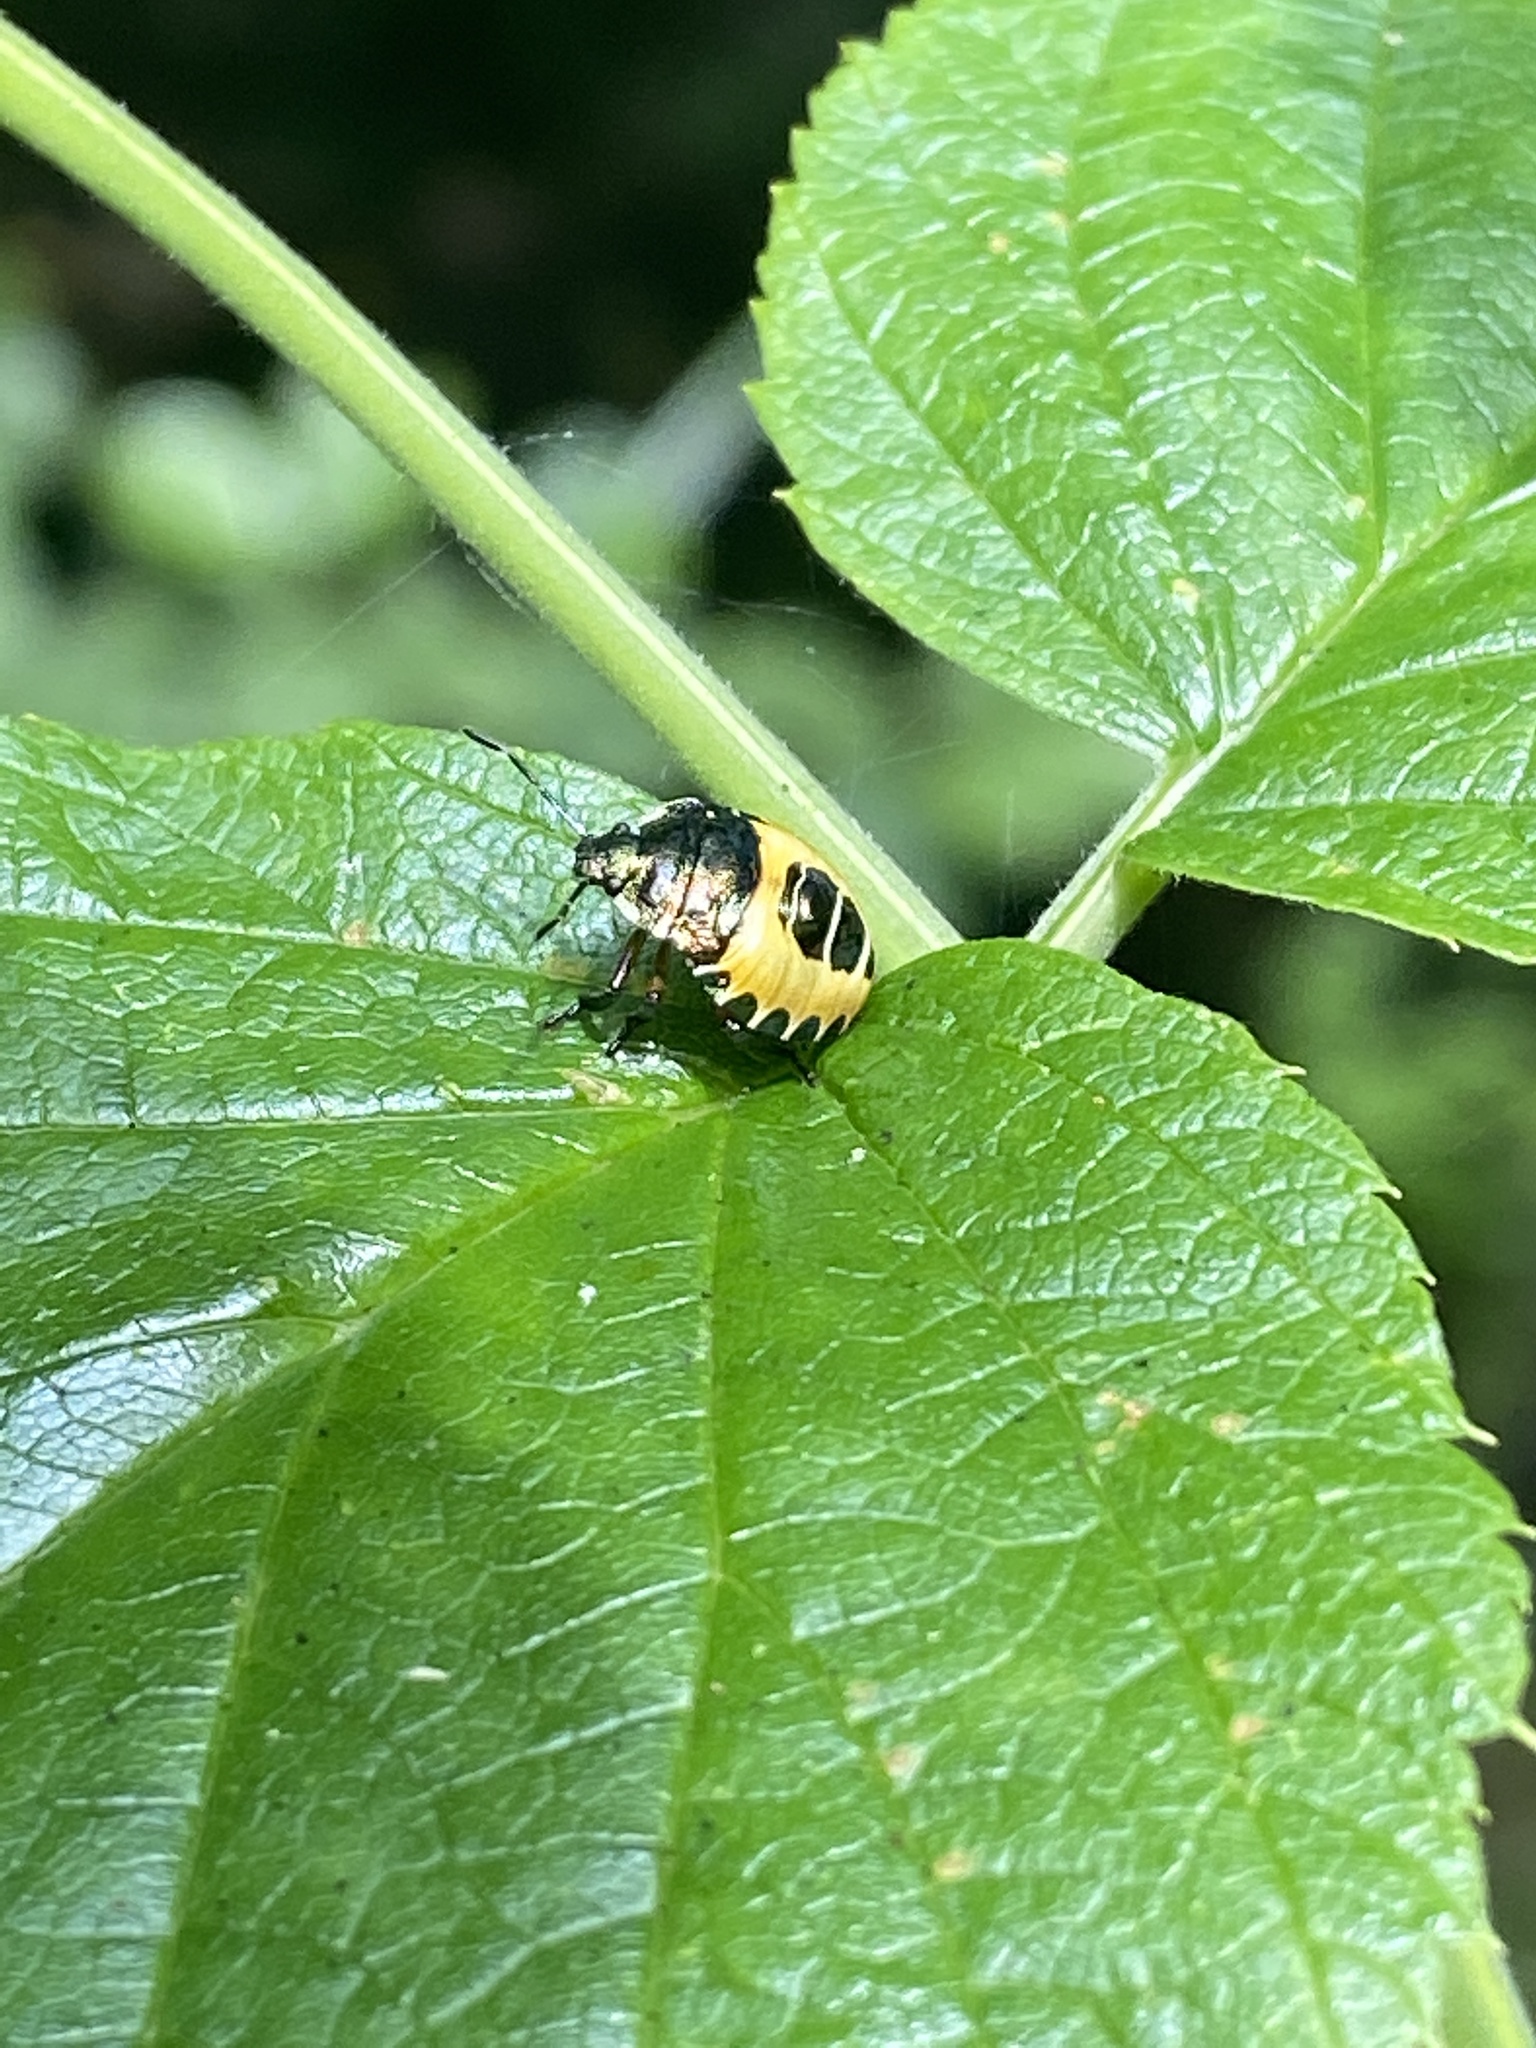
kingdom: Animalia
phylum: Arthropoda
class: Insecta
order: Hemiptera
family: Pentatomidae
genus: Troilus
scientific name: Troilus luridus
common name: Bronze shieldbug
